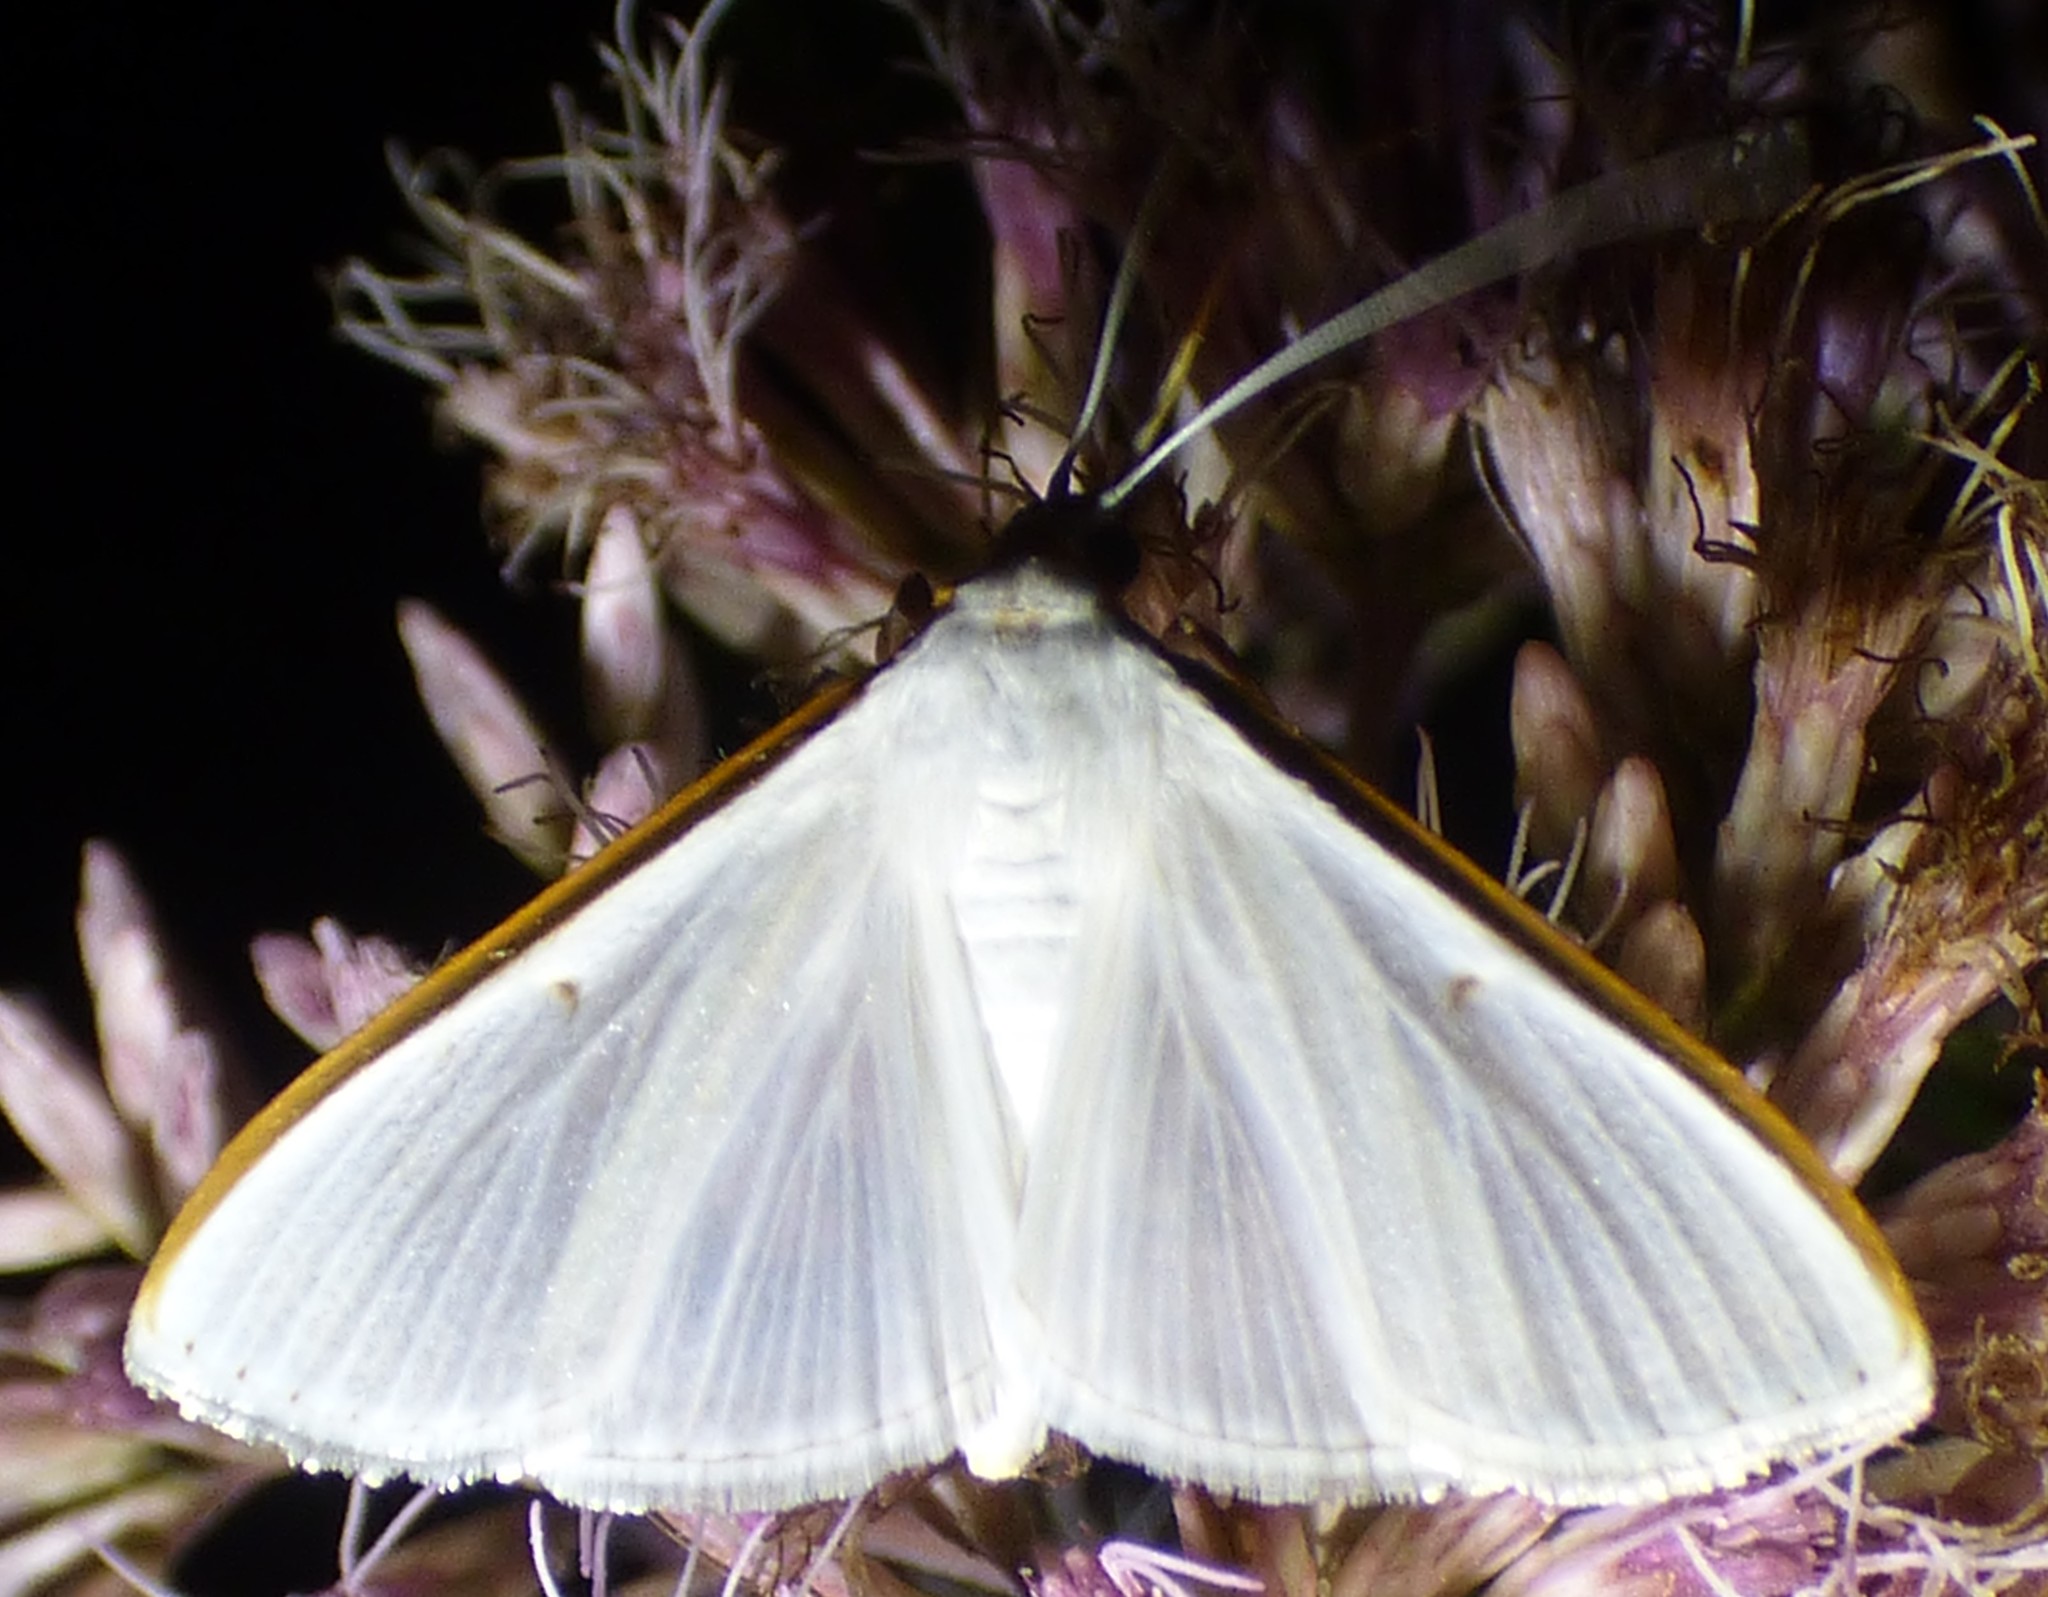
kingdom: Animalia
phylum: Arthropoda
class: Insecta
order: Lepidoptera
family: Crambidae
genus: Diaphania
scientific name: Diaphania costata
